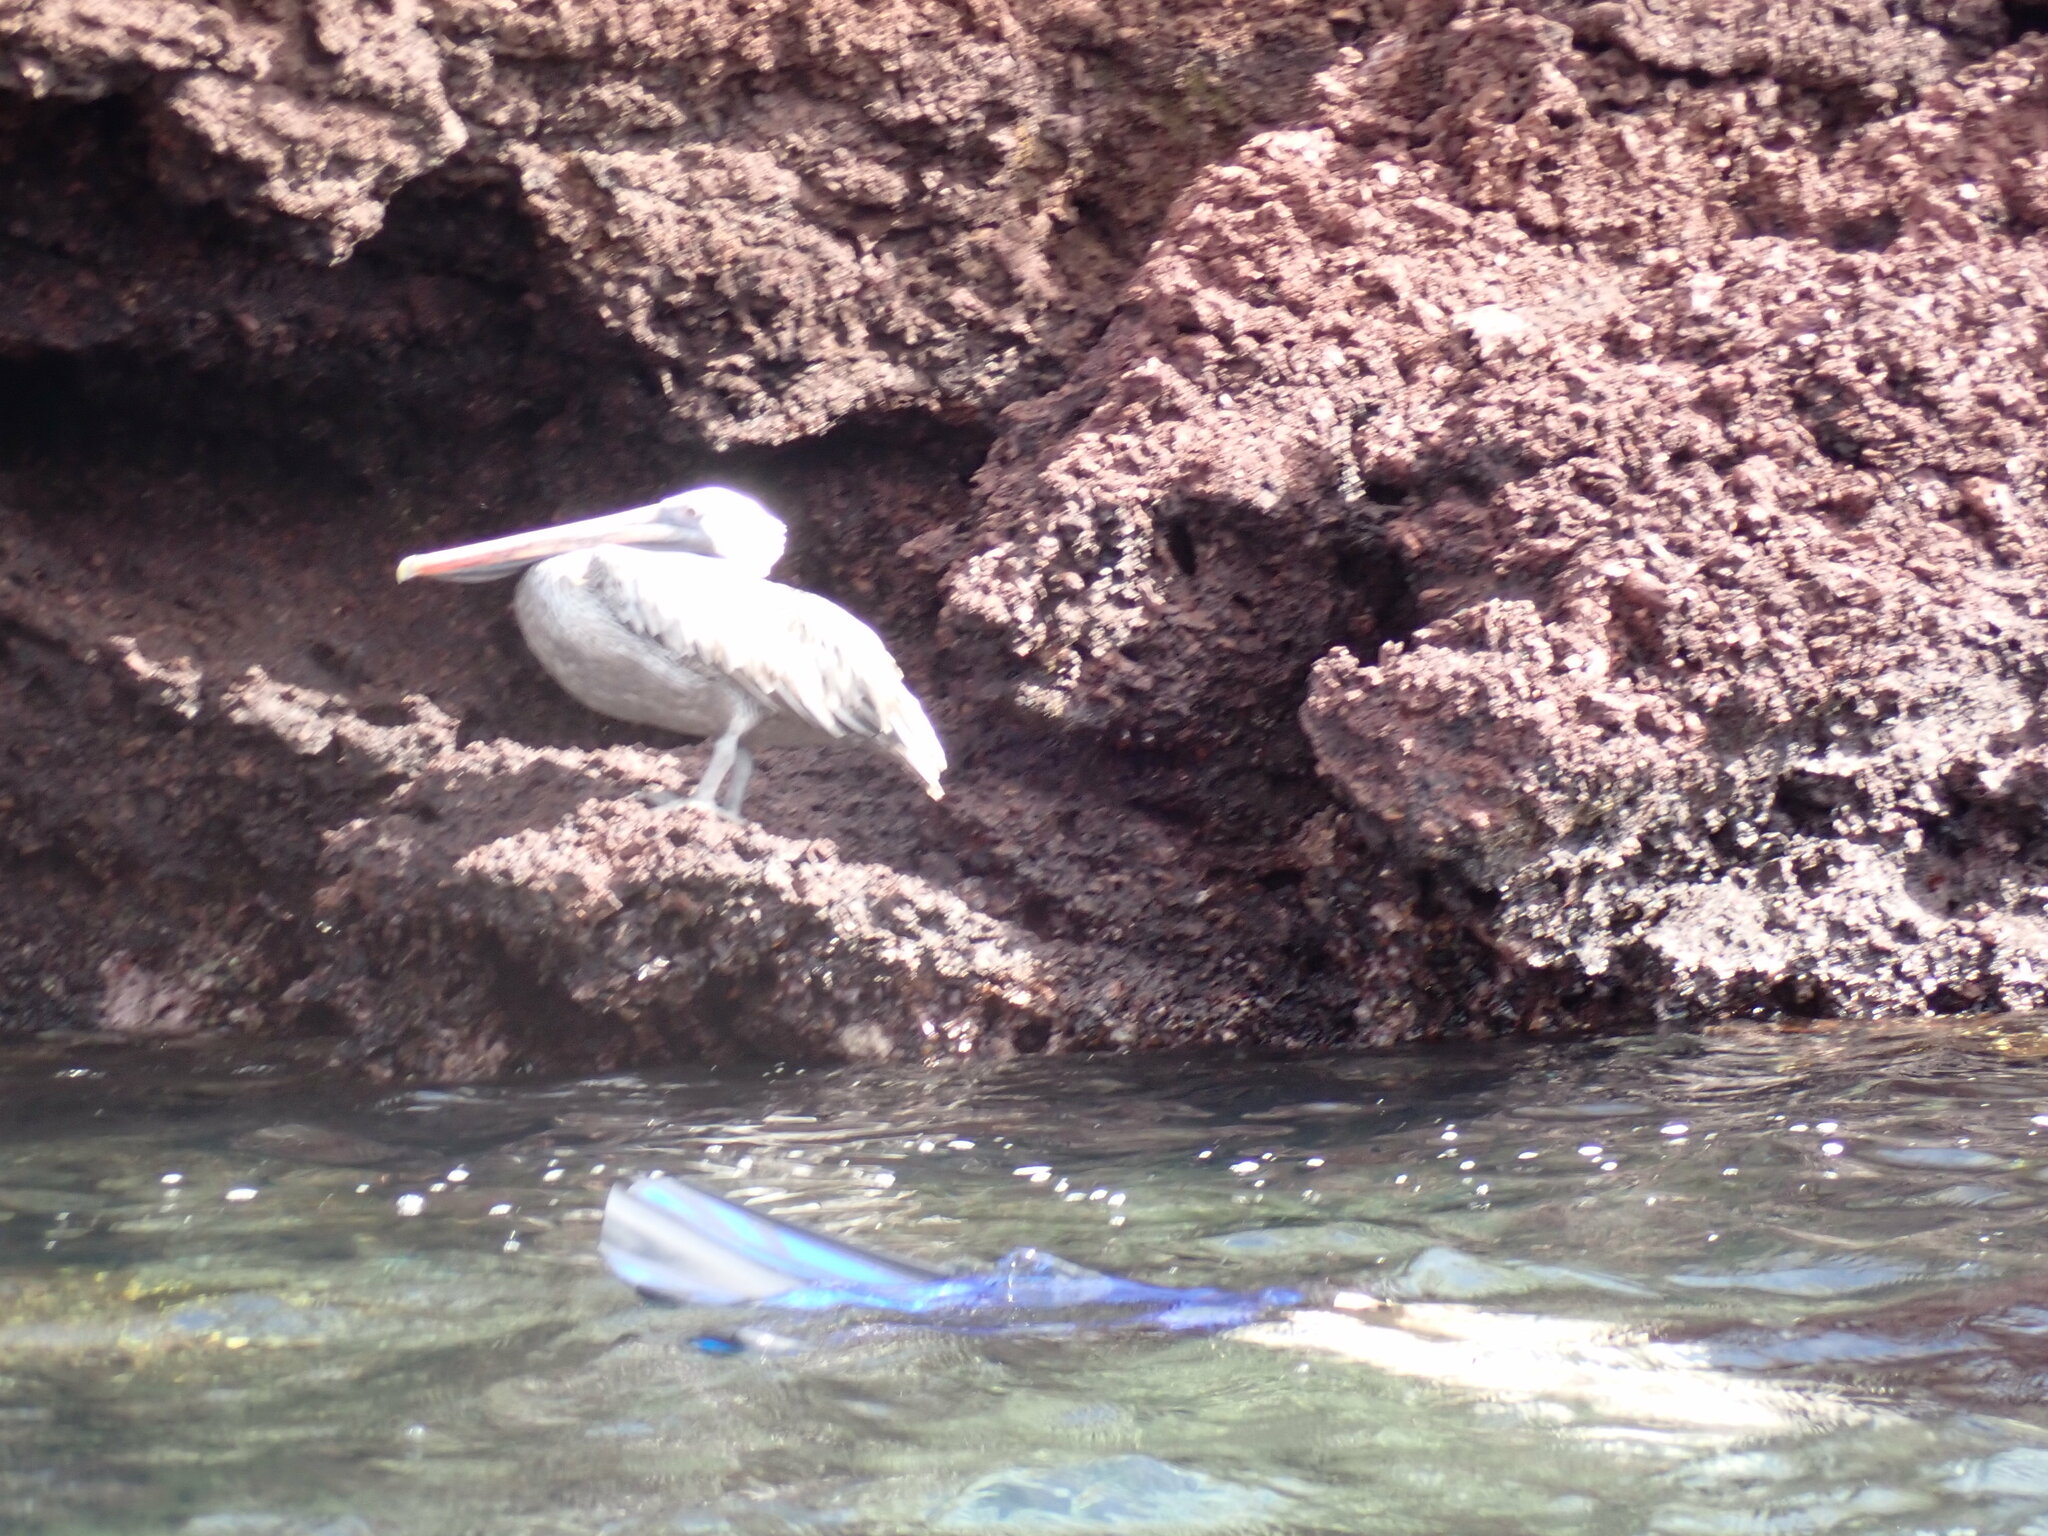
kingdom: Animalia
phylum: Chordata
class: Aves
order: Pelecaniformes
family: Pelecanidae
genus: Pelecanus
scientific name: Pelecanus occidentalis
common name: Brown pelican
